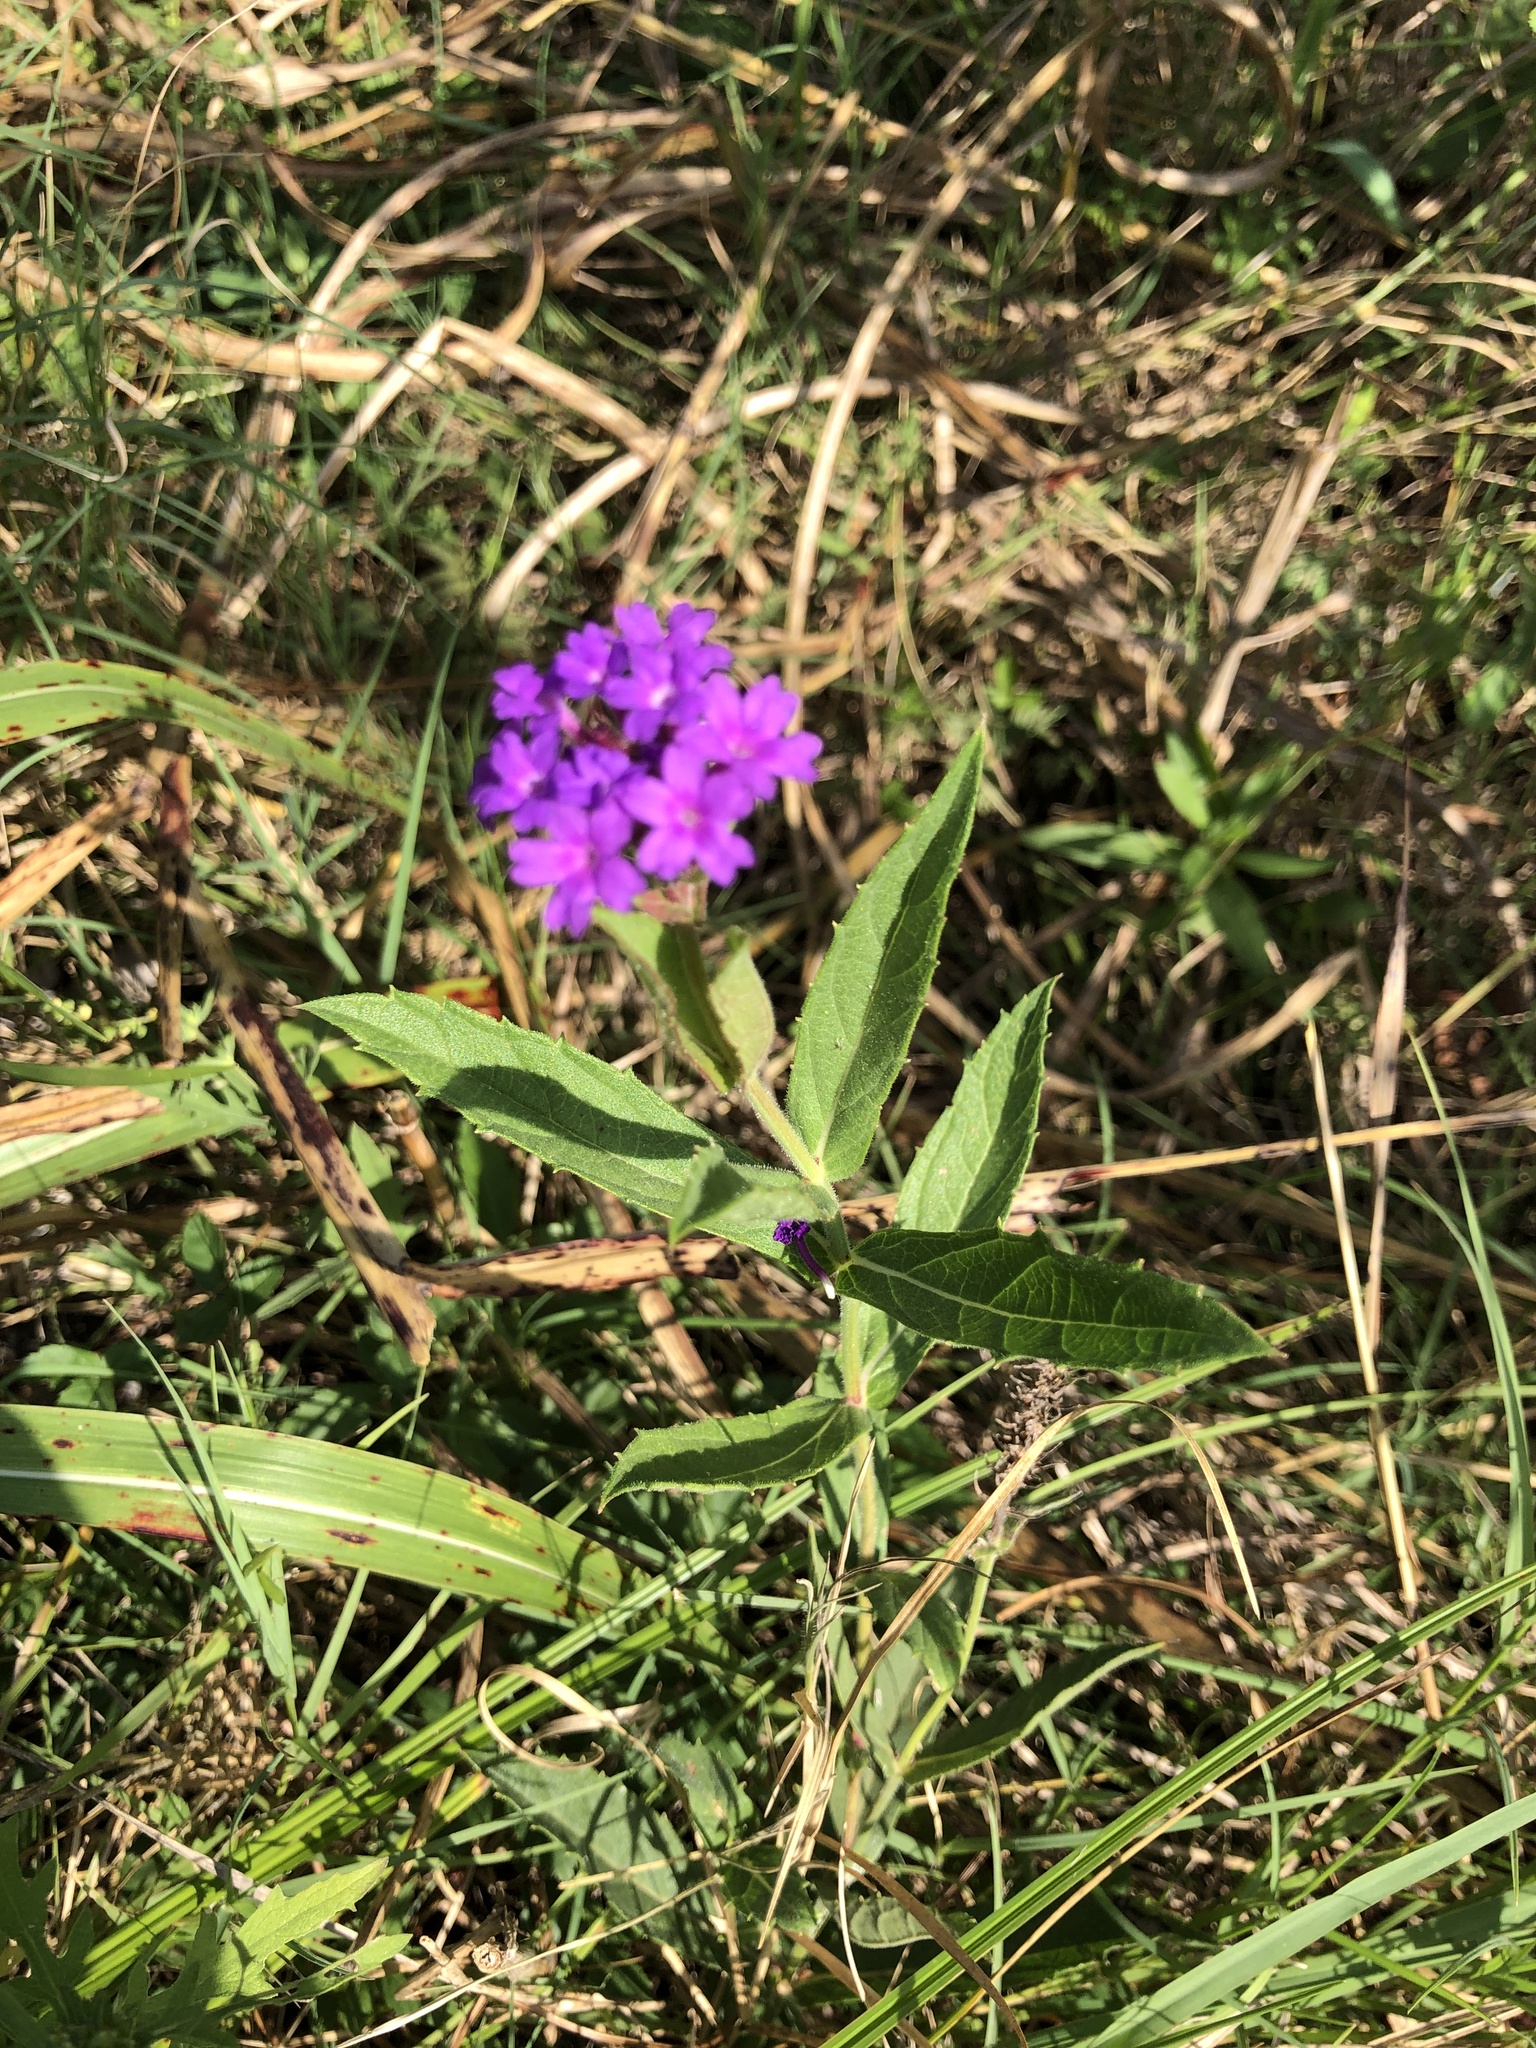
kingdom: Plantae
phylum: Tracheophyta
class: Magnoliopsida
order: Lamiales
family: Verbenaceae
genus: Verbena
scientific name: Verbena rigida
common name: Slender vervain
